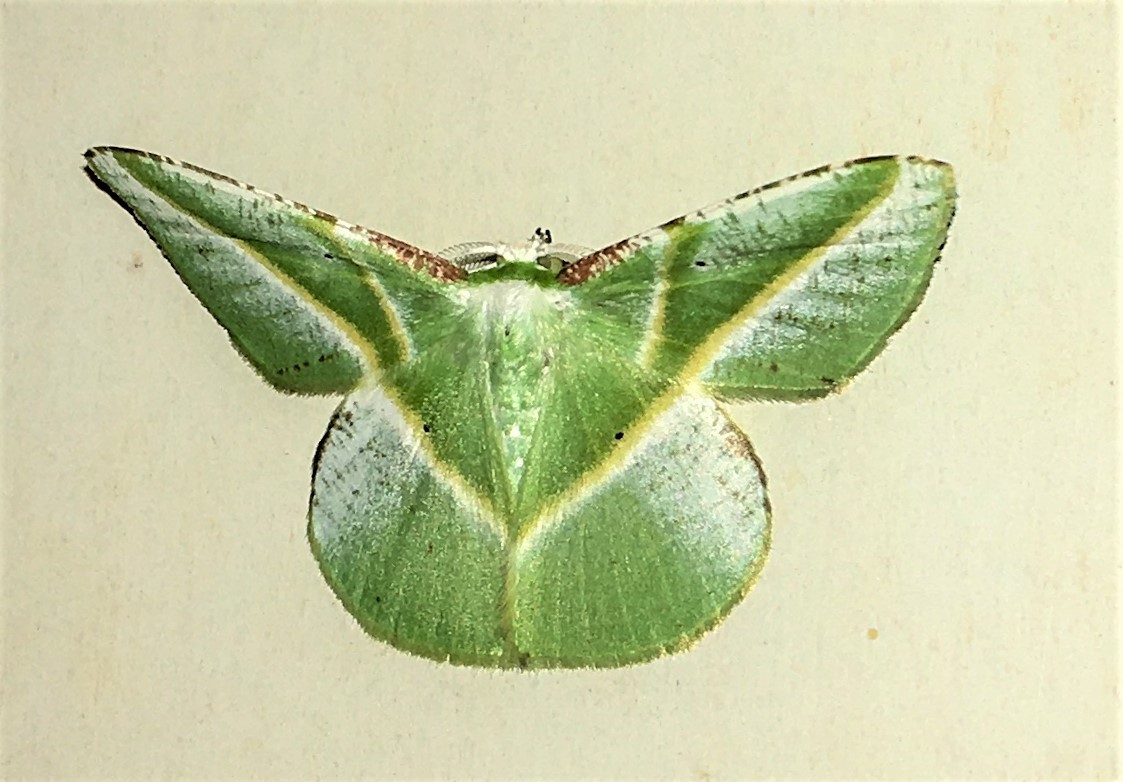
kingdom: Animalia
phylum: Arthropoda
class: Insecta
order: Lepidoptera
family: Geometridae
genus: Dichorda
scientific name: Dichorda iris
